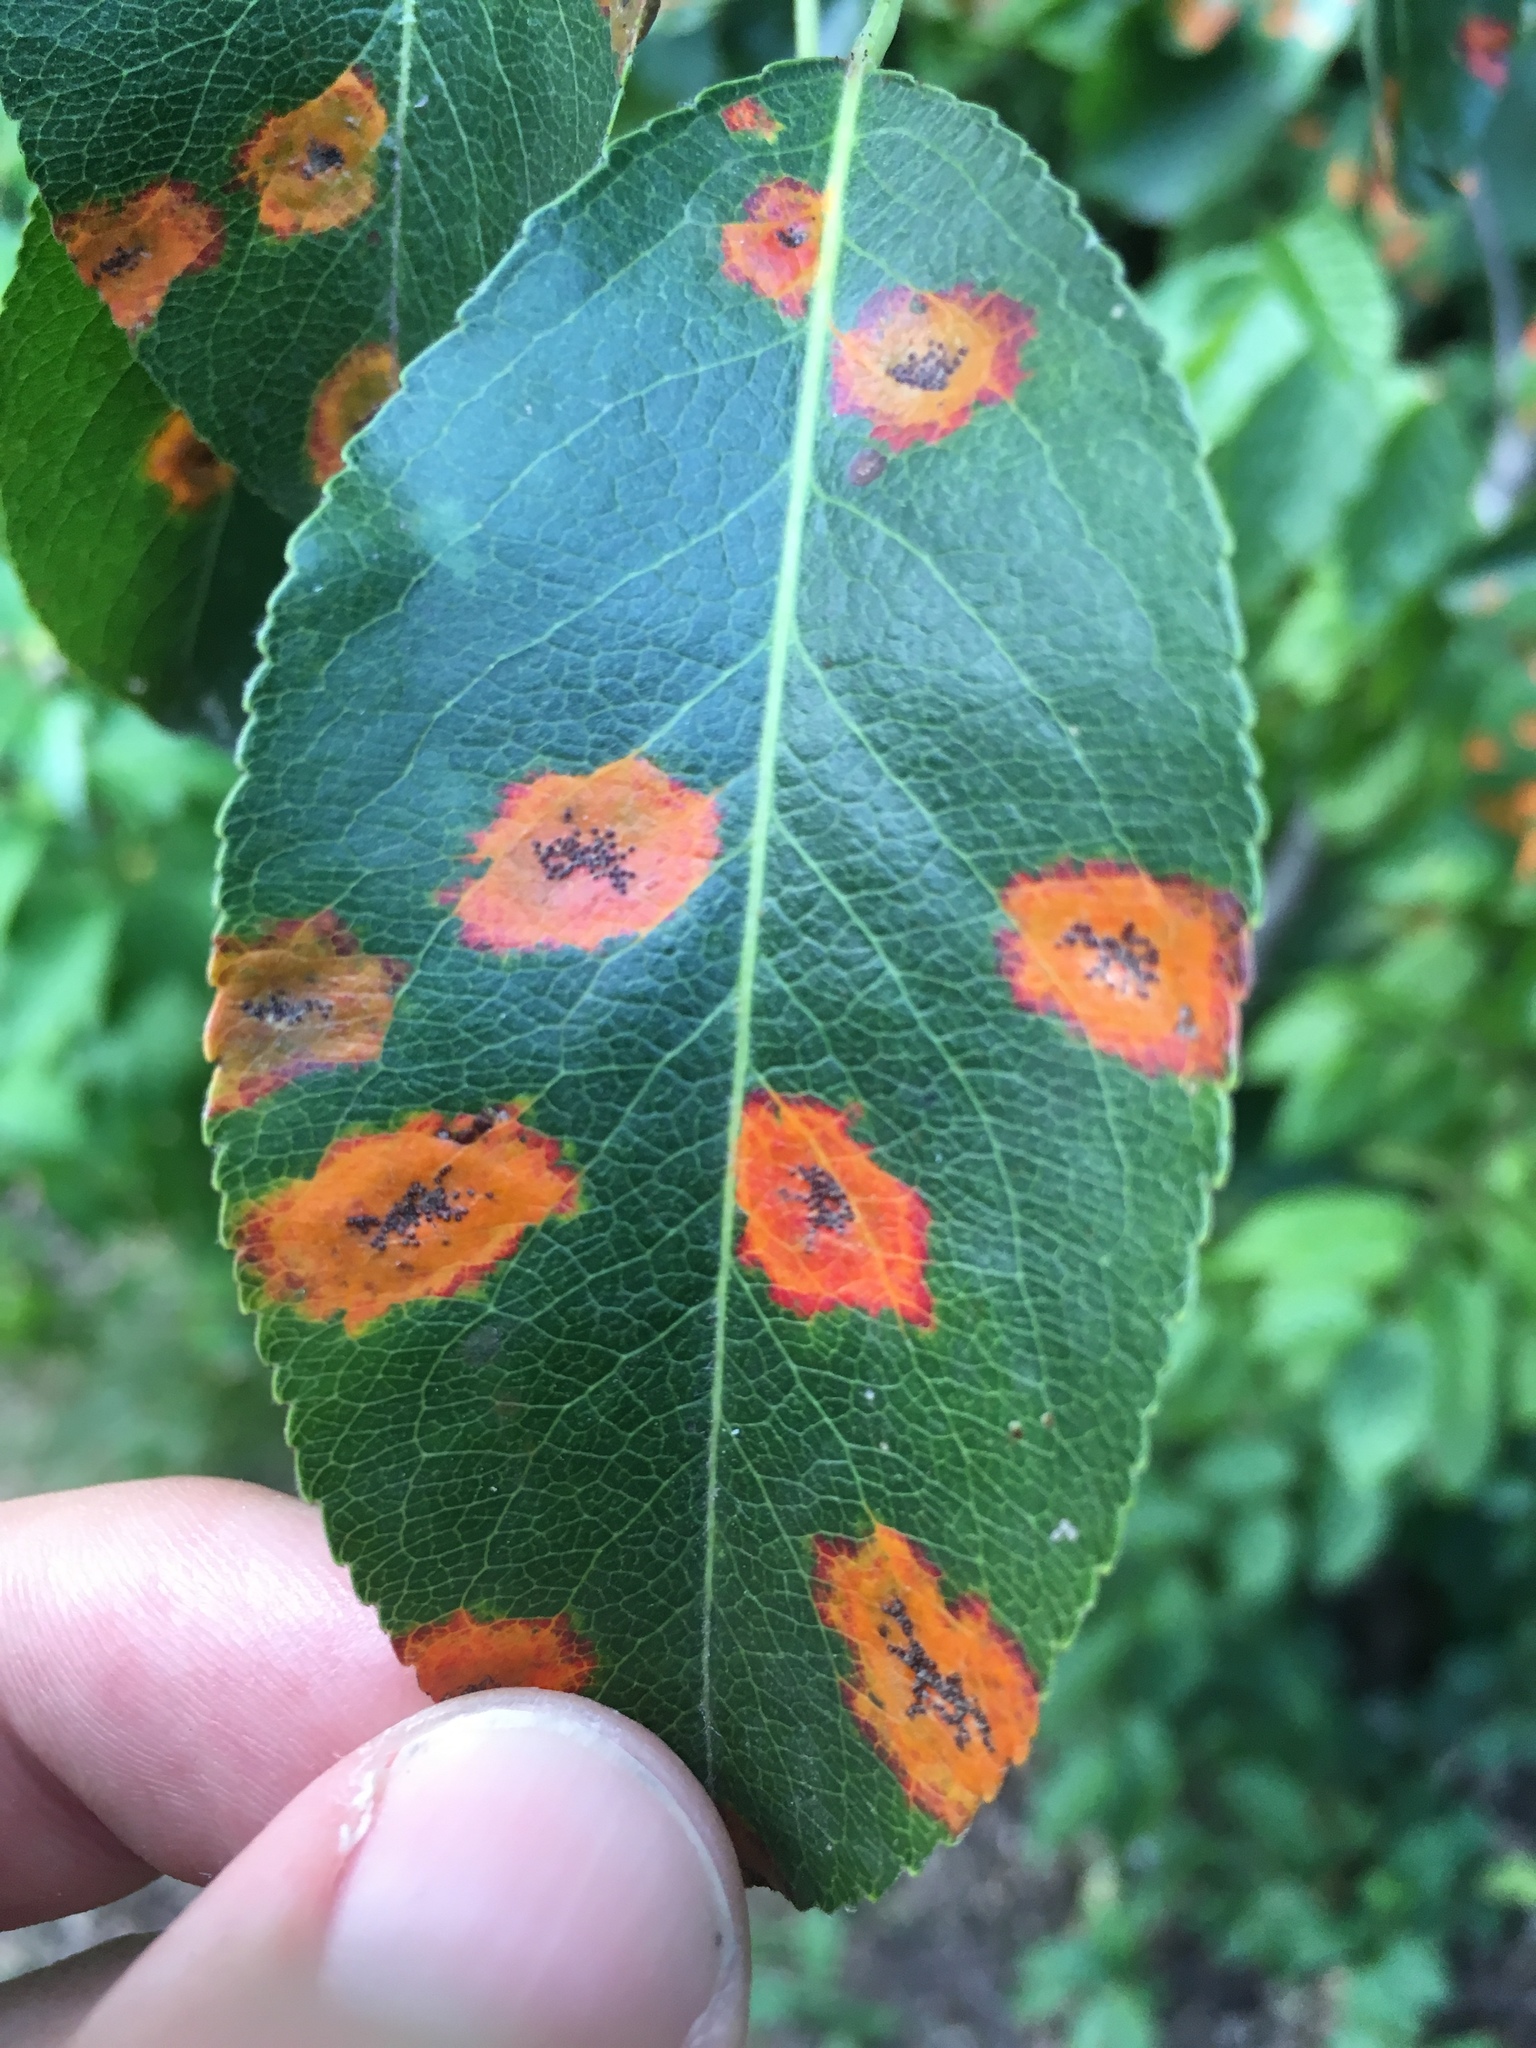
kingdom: Plantae
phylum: Tracheophyta
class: Magnoliopsida
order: Rosales
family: Rosaceae
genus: Pyrus
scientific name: Pyrus communis
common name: Pear
